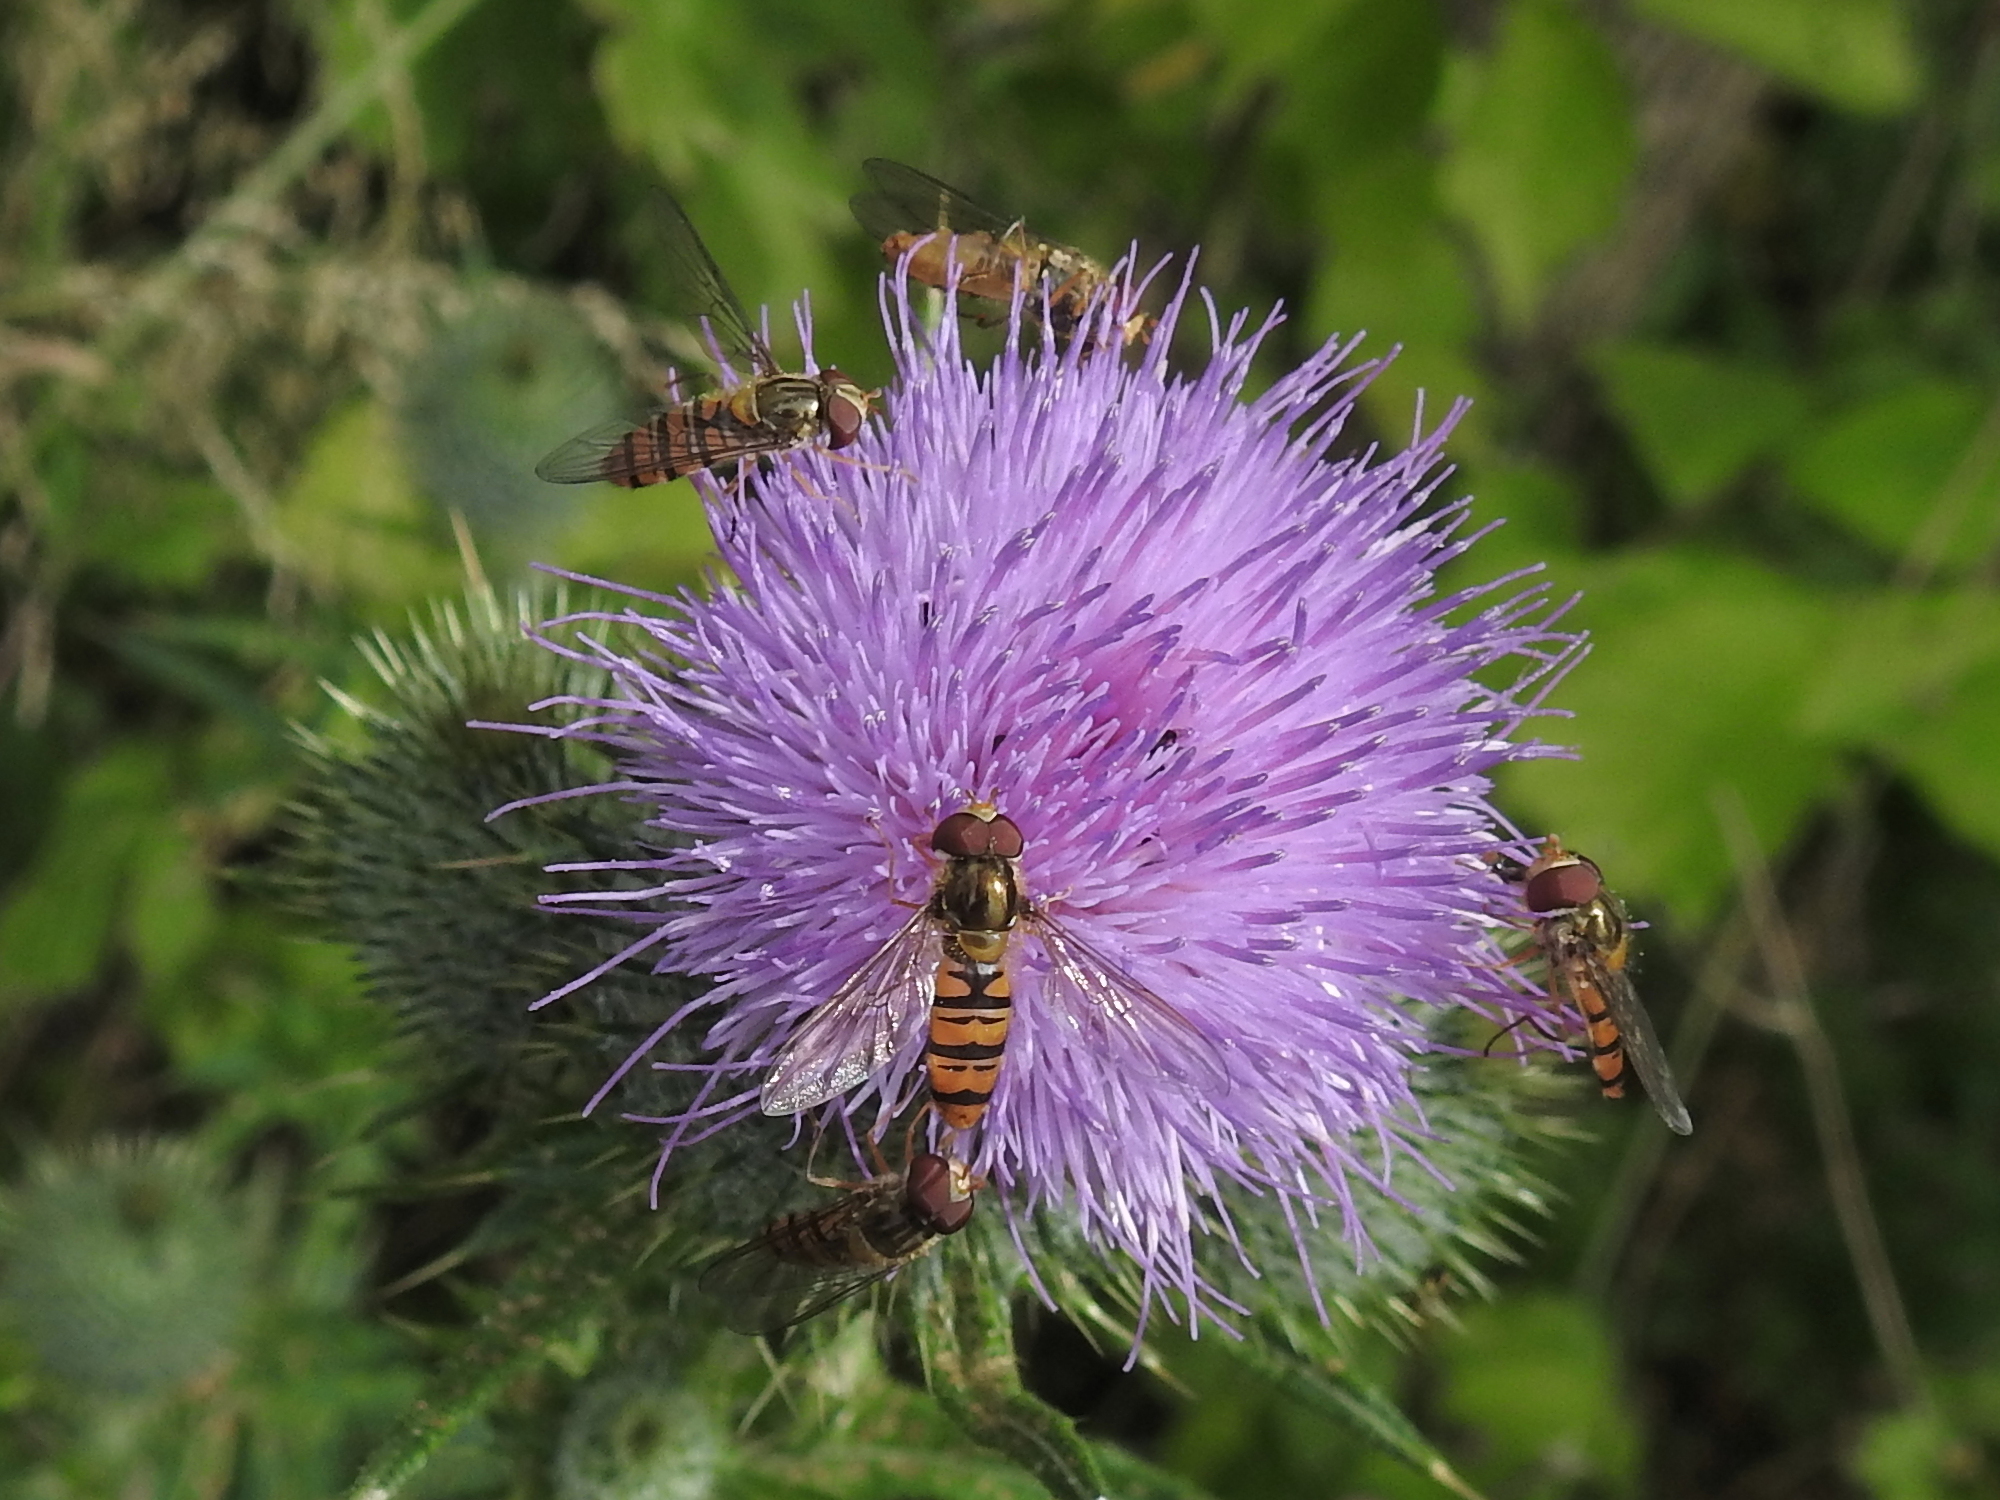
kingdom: Animalia
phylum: Arthropoda
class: Insecta
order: Diptera
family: Syrphidae
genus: Episyrphus
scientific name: Episyrphus balteatus
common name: Marmalade hoverfly
